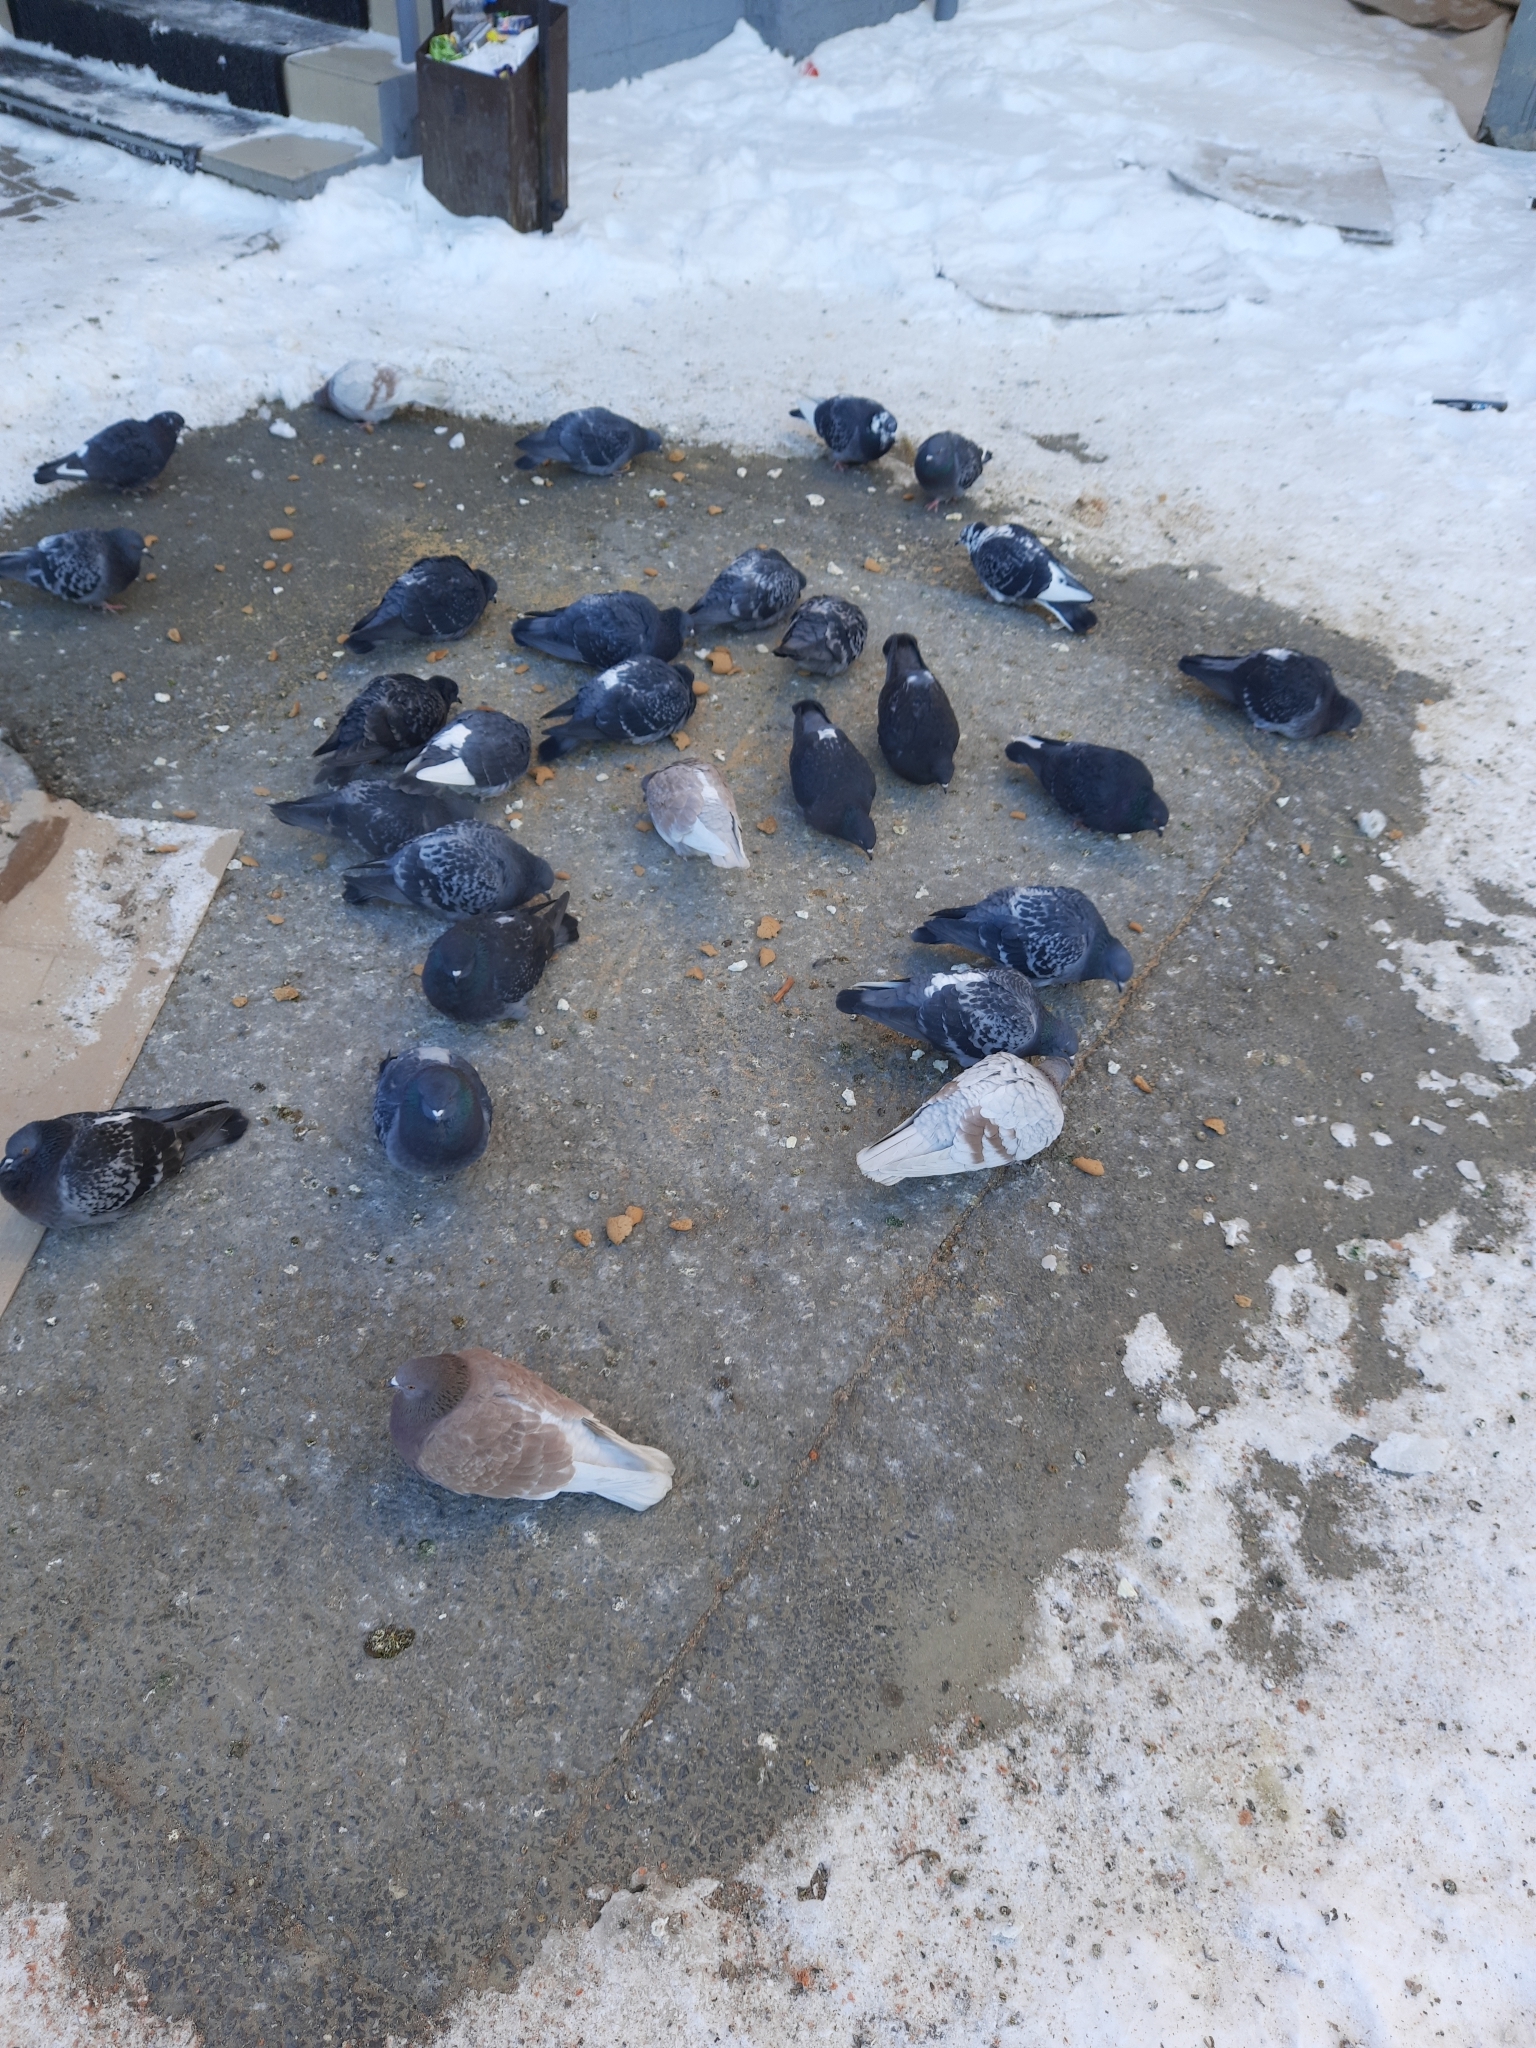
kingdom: Animalia
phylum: Chordata
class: Aves
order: Columbiformes
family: Columbidae
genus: Columba
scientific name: Columba livia
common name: Rock pigeon
